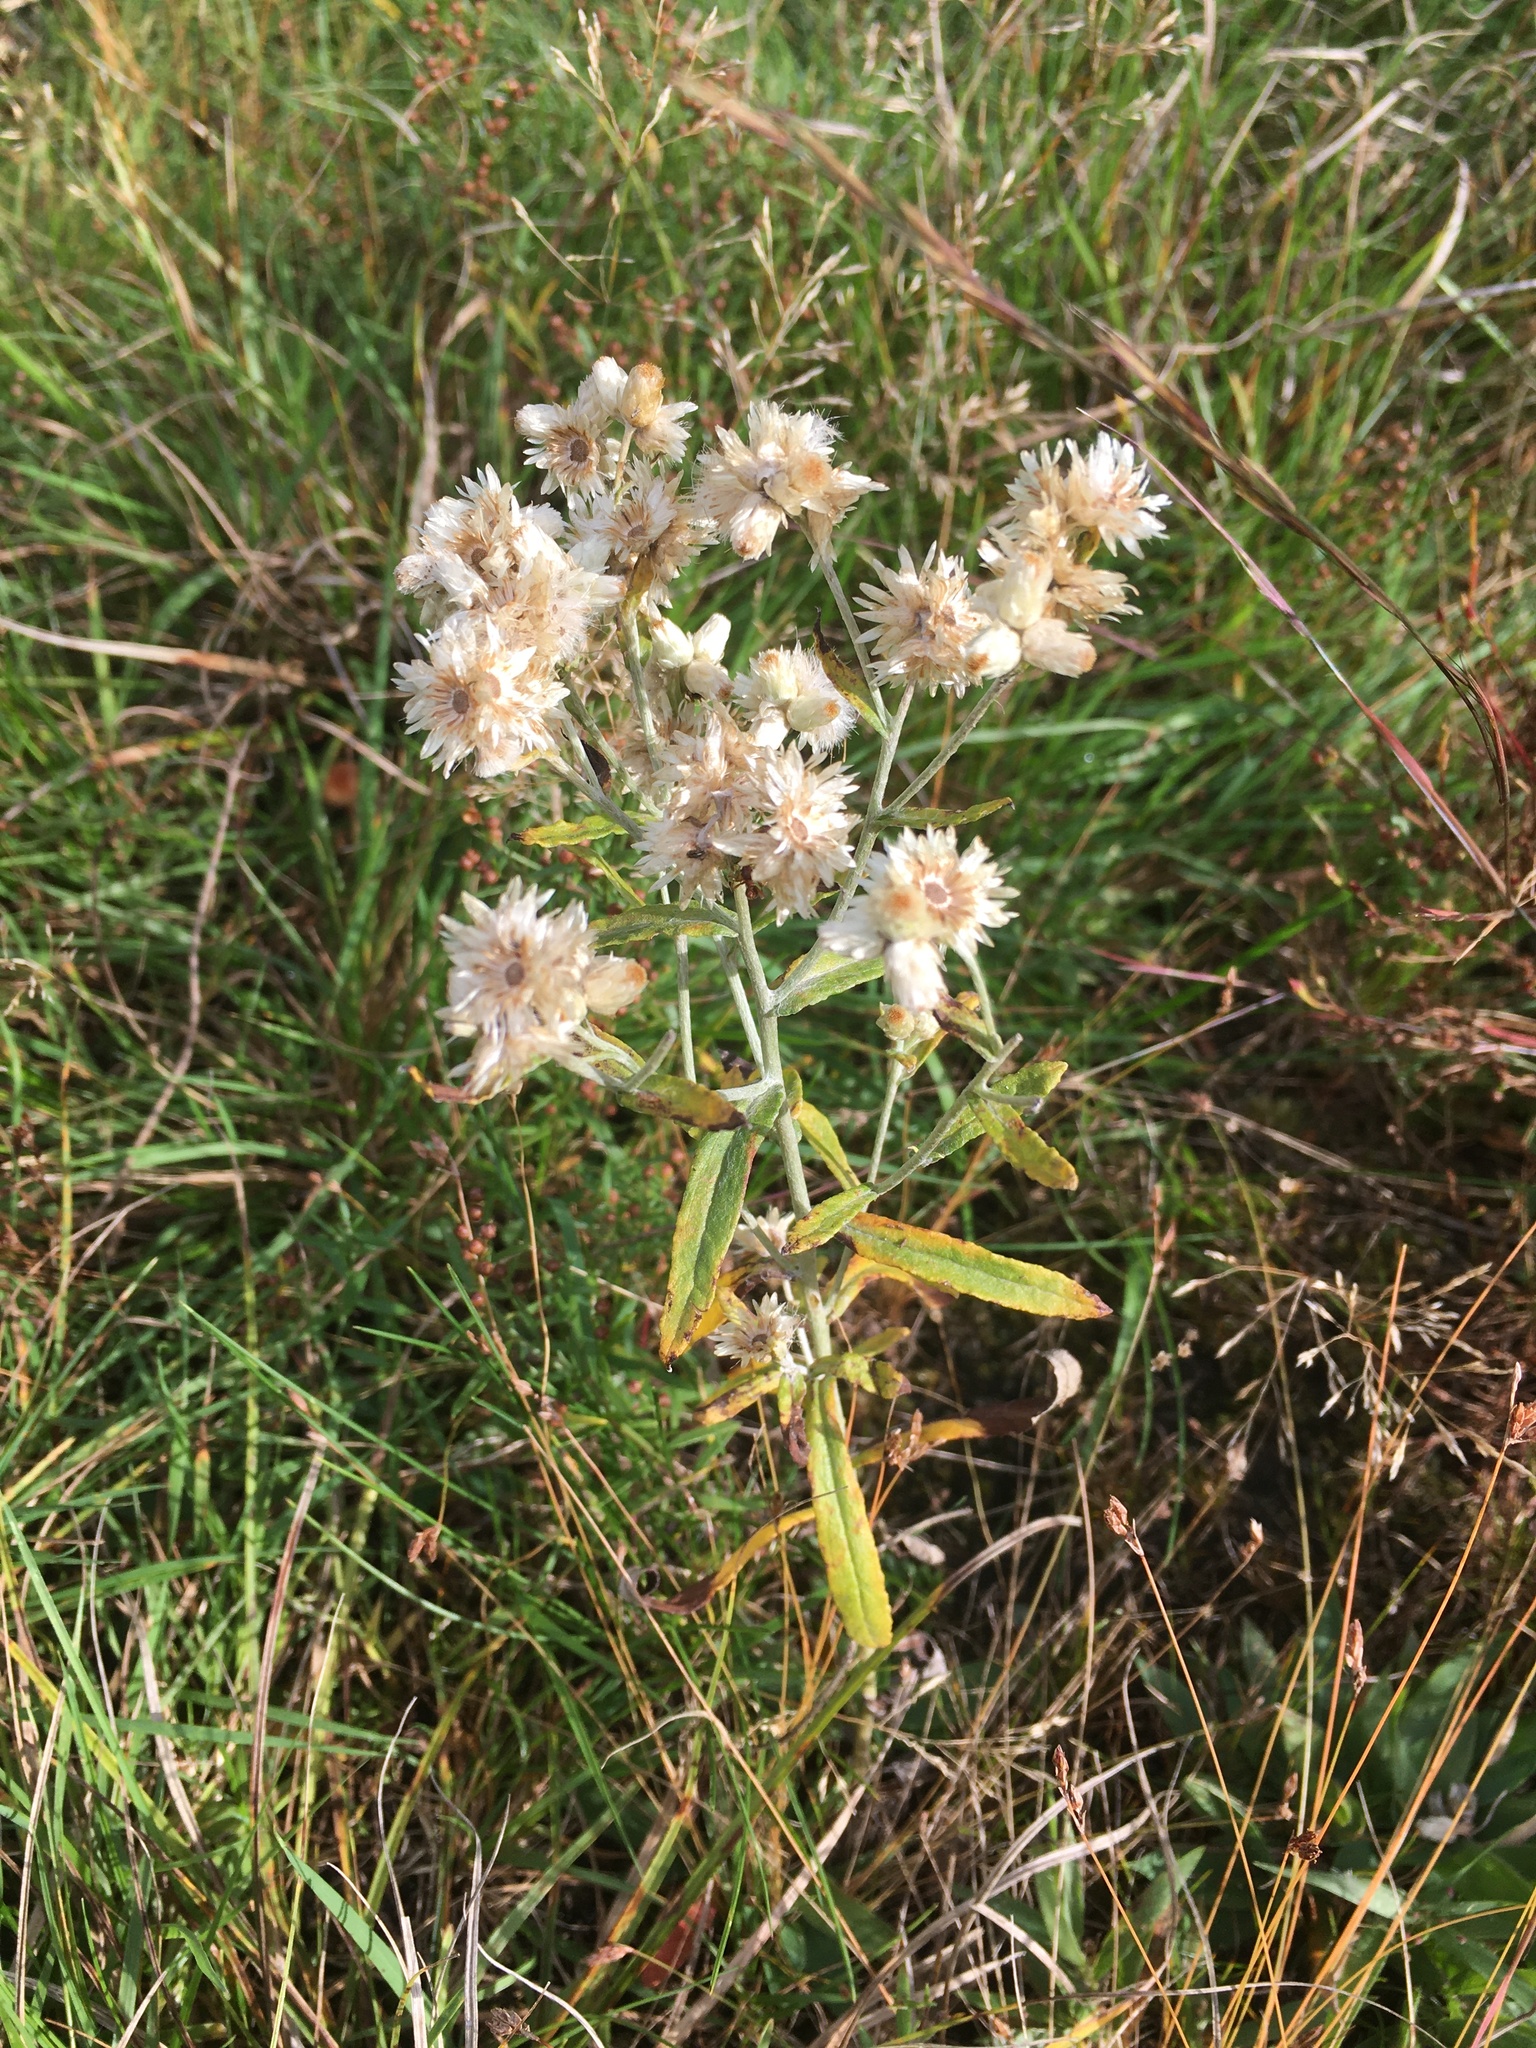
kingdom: Plantae
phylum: Tracheophyta
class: Magnoliopsida
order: Asterales
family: Asteraceae
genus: Anaphalis
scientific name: Anaphalis margaritacea
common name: Pearly everlasting
